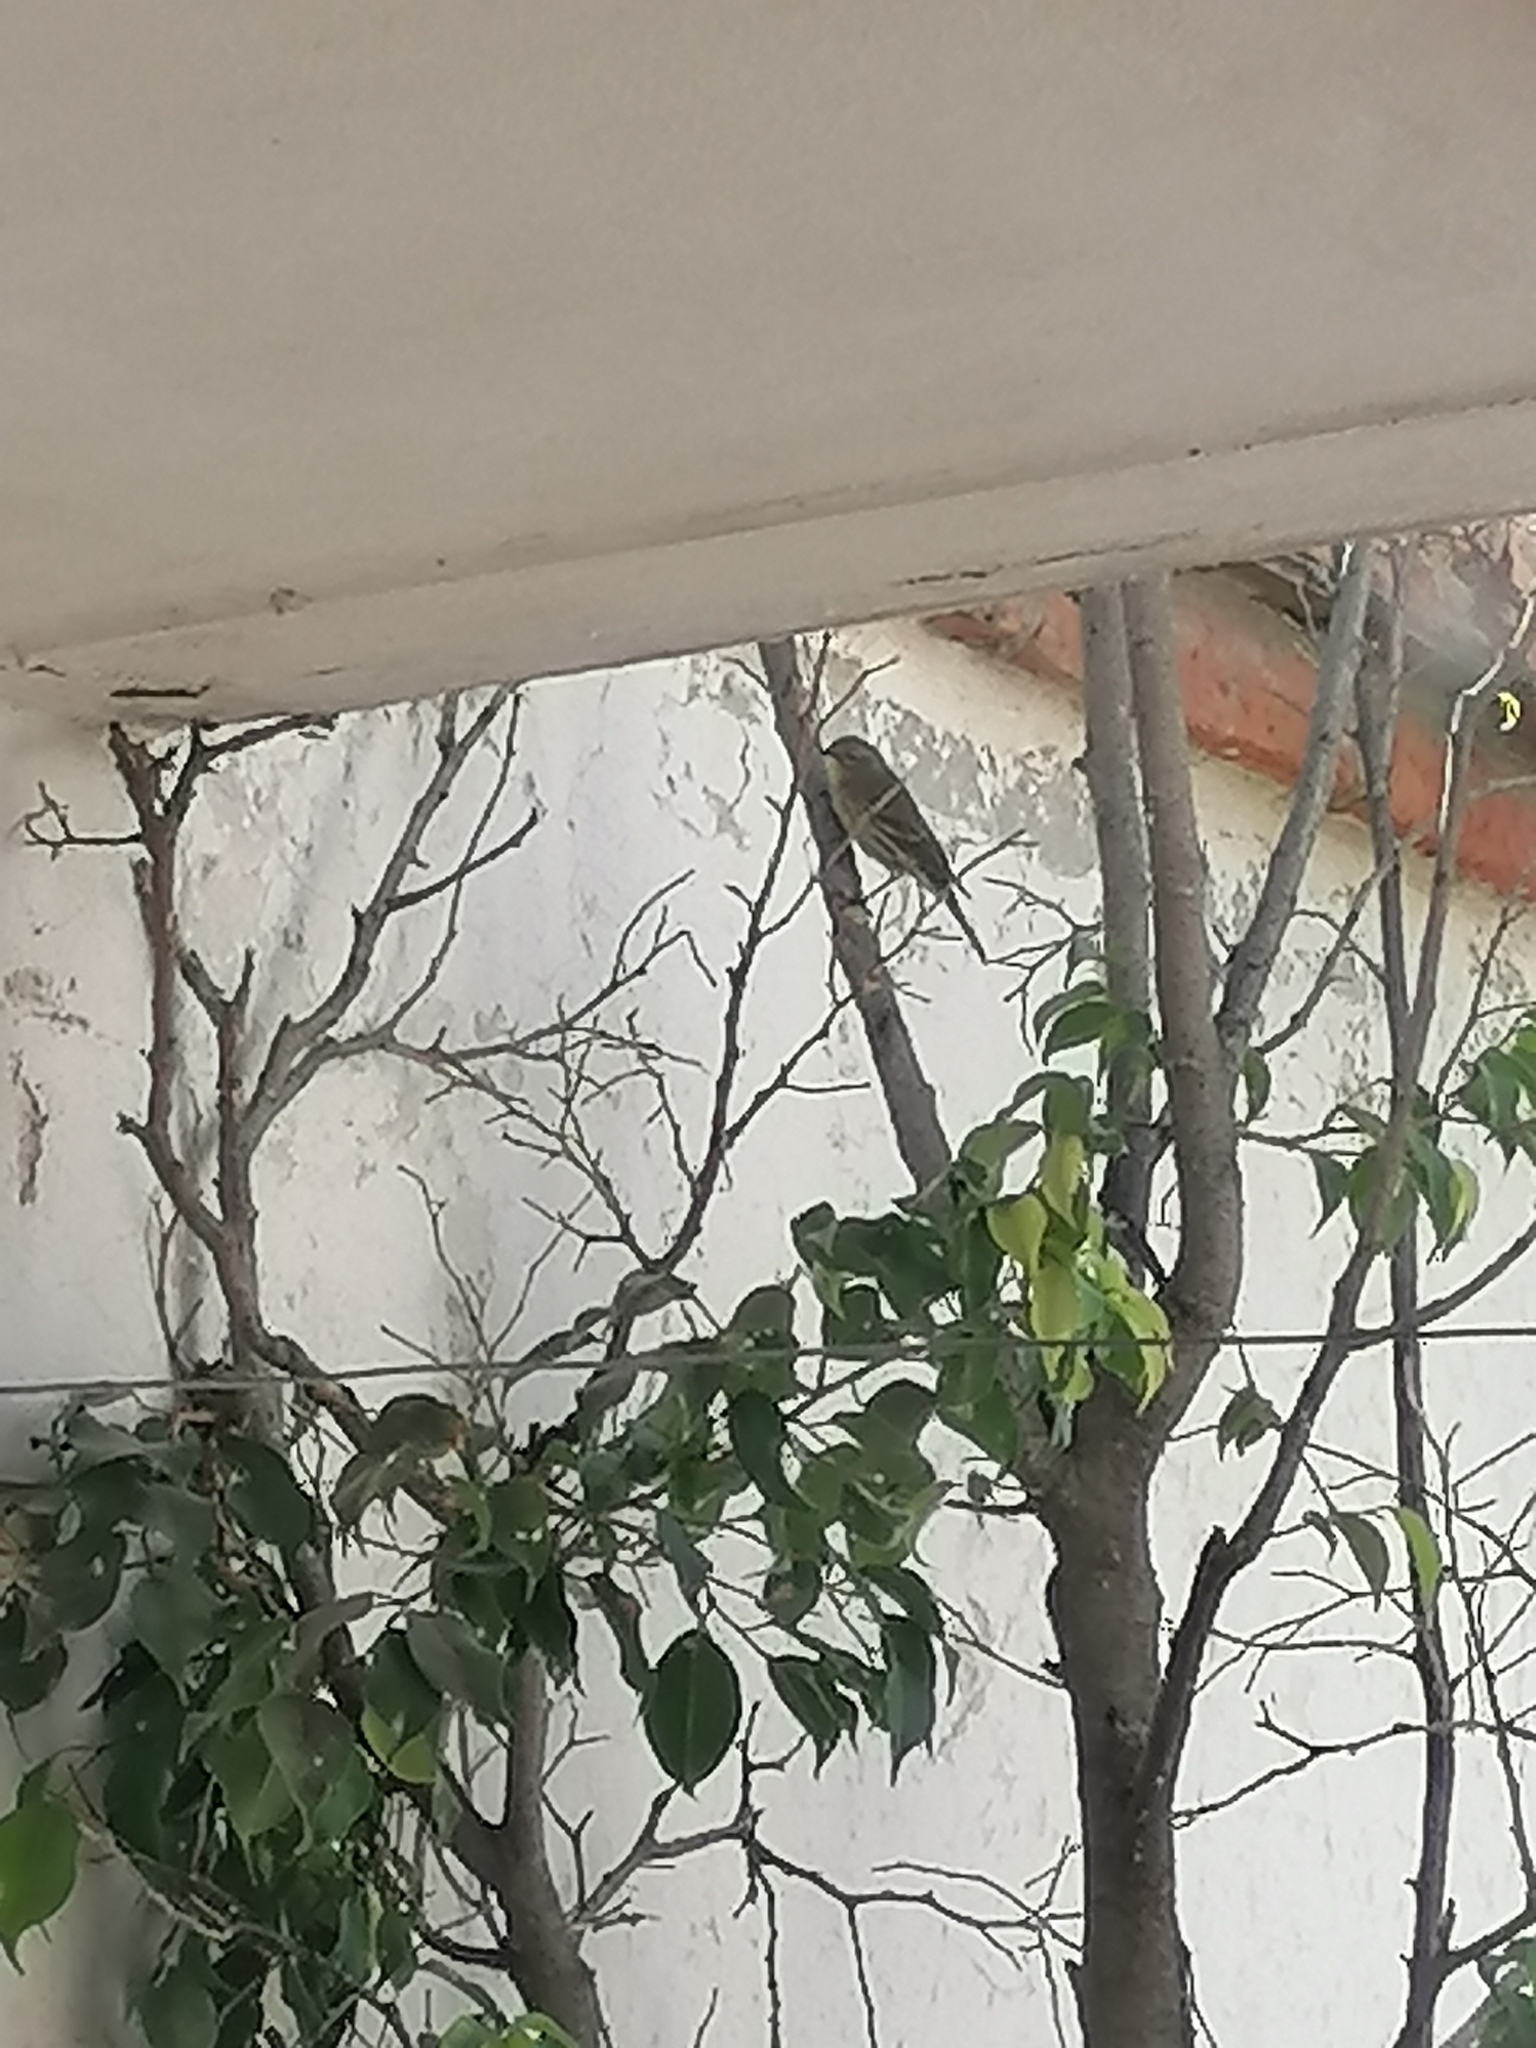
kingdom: Animalia
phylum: Chordata
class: Aves
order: Passeriformes
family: Parulidae
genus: Setophaga
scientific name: Setophaga coronata
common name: Myrtle warbler
